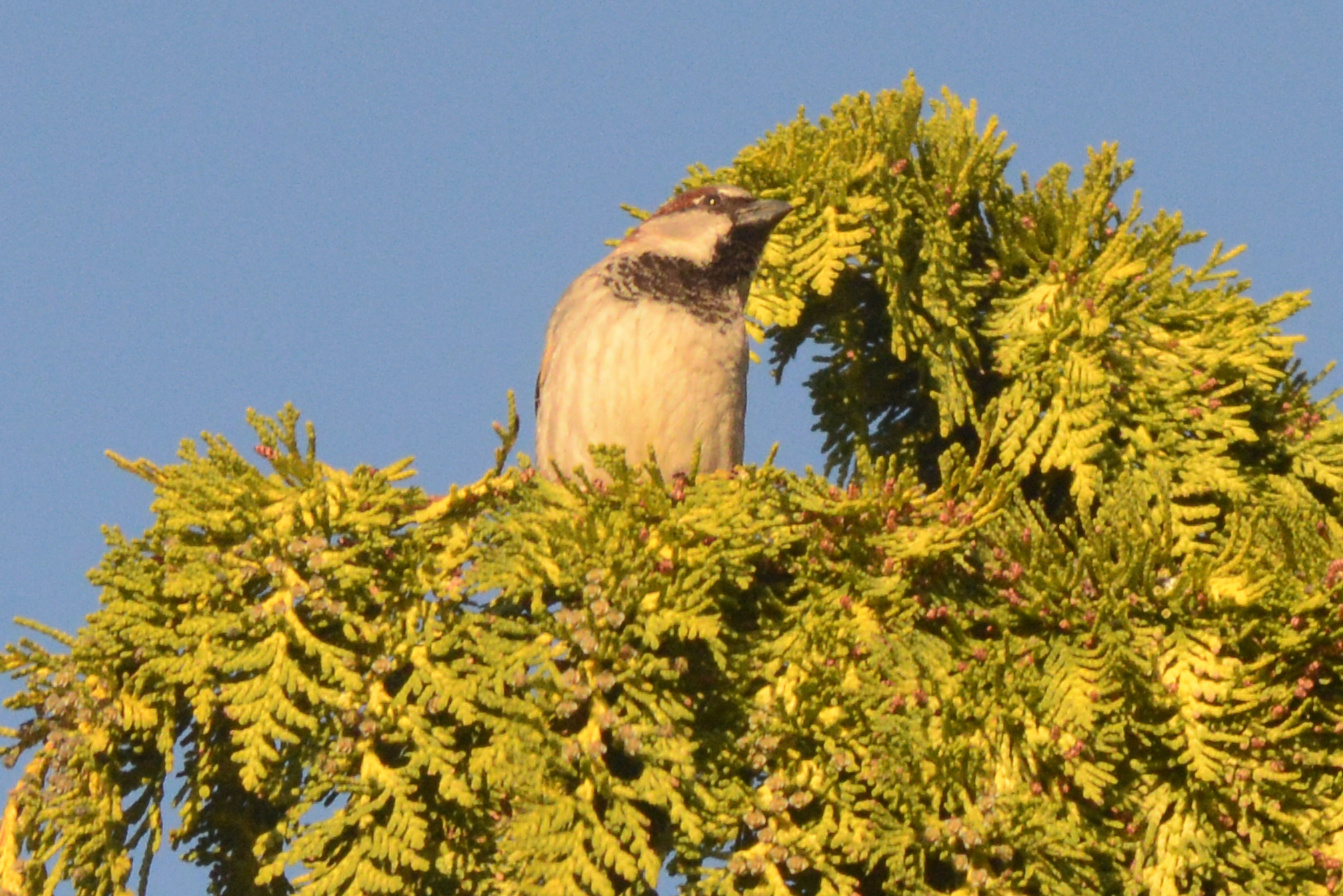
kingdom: Animalia
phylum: Chordata
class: Aves
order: Passeriformes
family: Passeridae
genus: Passer
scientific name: Passer domesticus
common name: House sparrow
